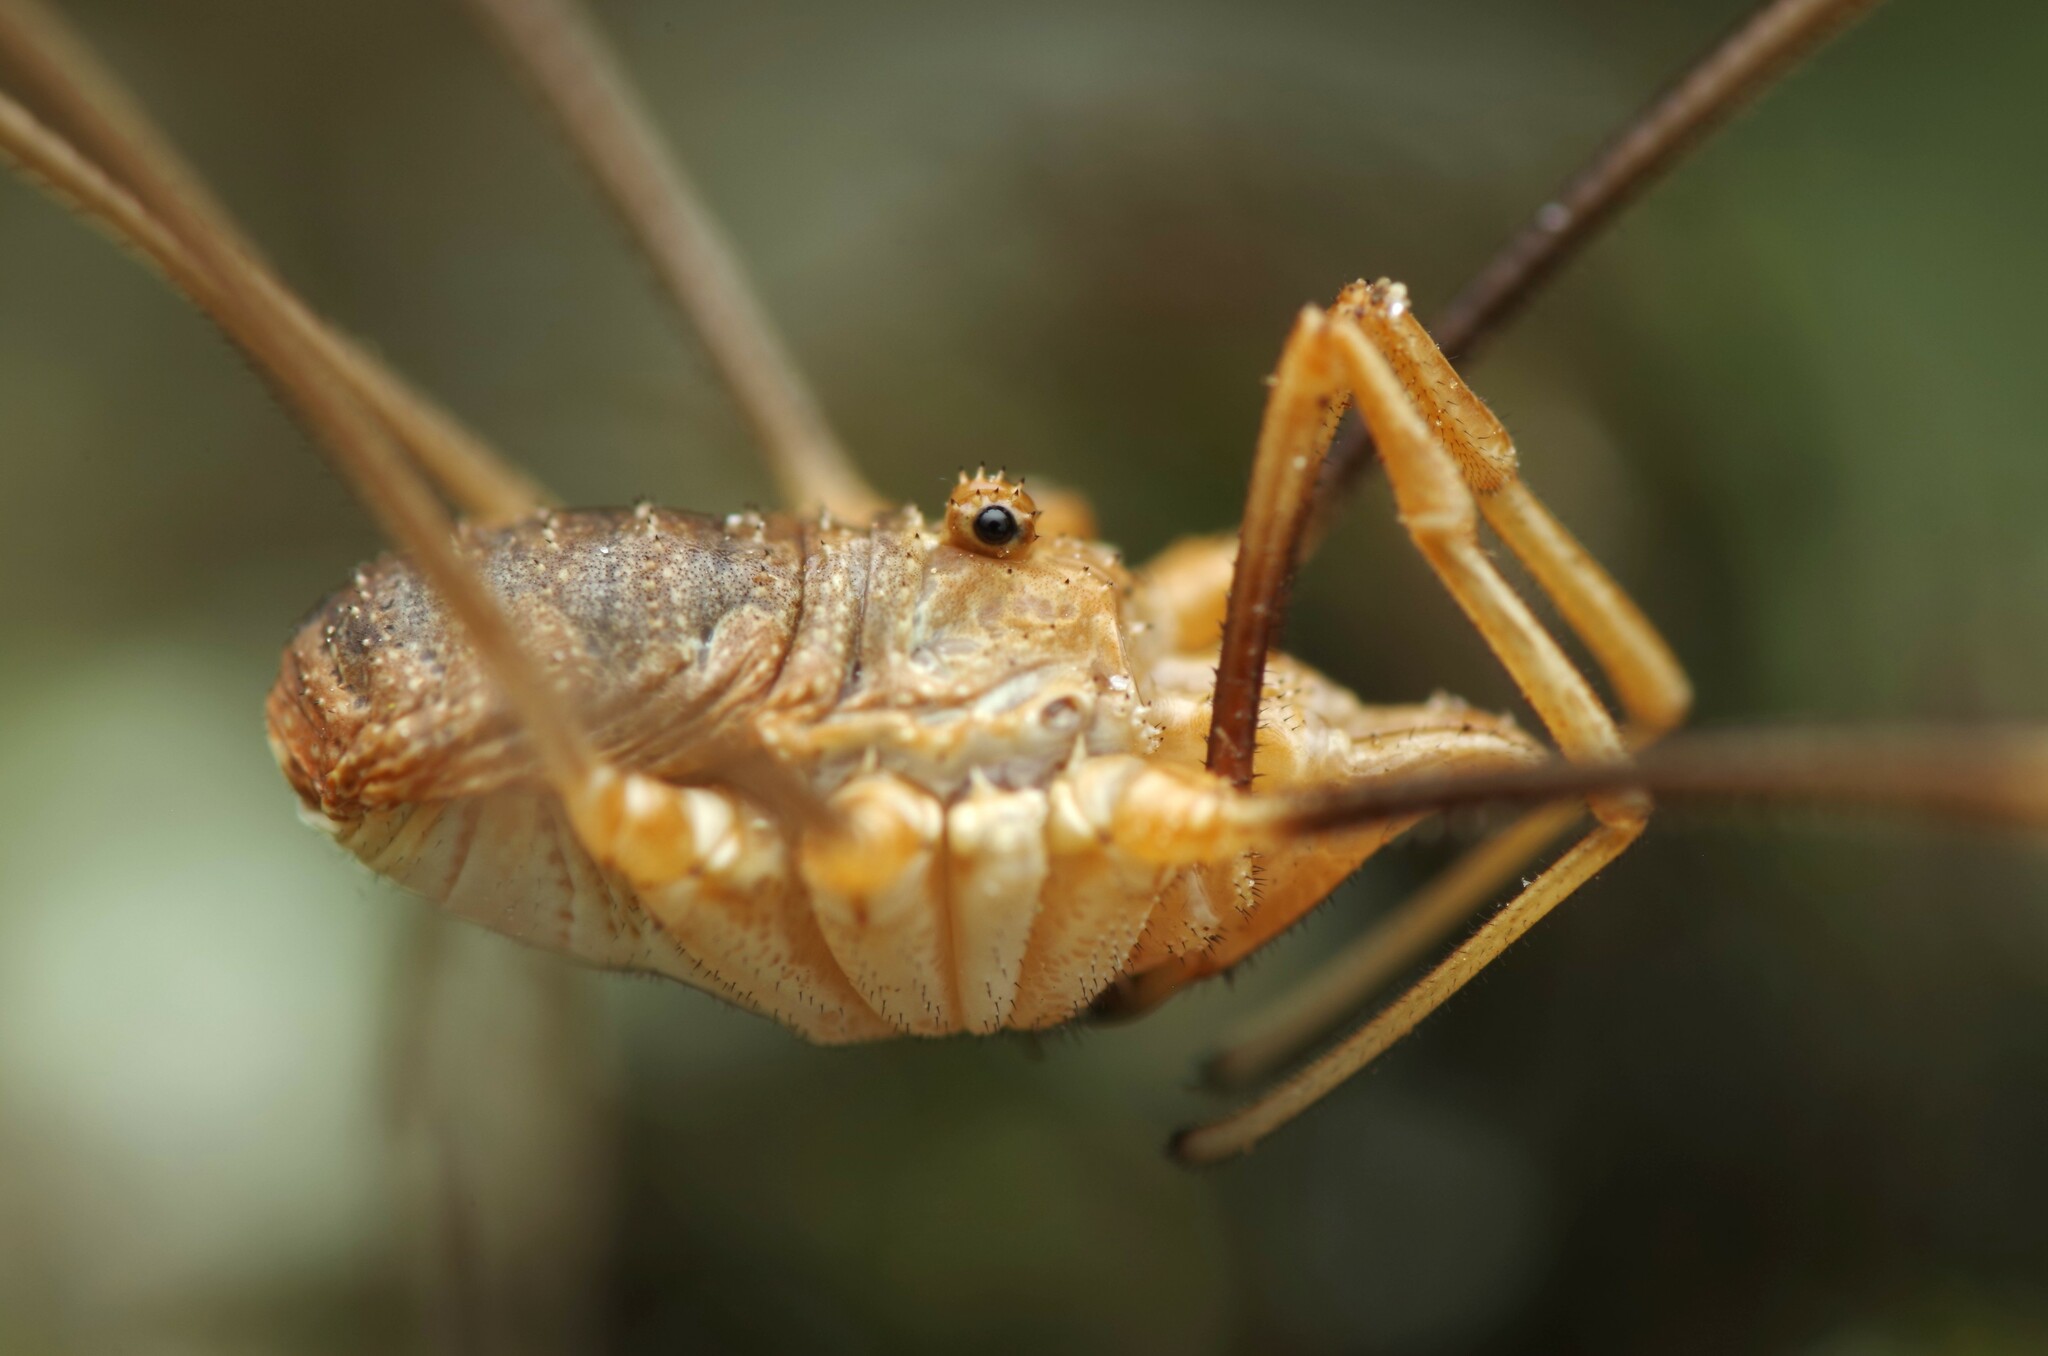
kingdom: Animalia
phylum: Arthropoda
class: Arachnida
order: Opiliones
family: Phalangiidae
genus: Phalangium
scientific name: Phalangium opilio
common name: Daddy longleg
